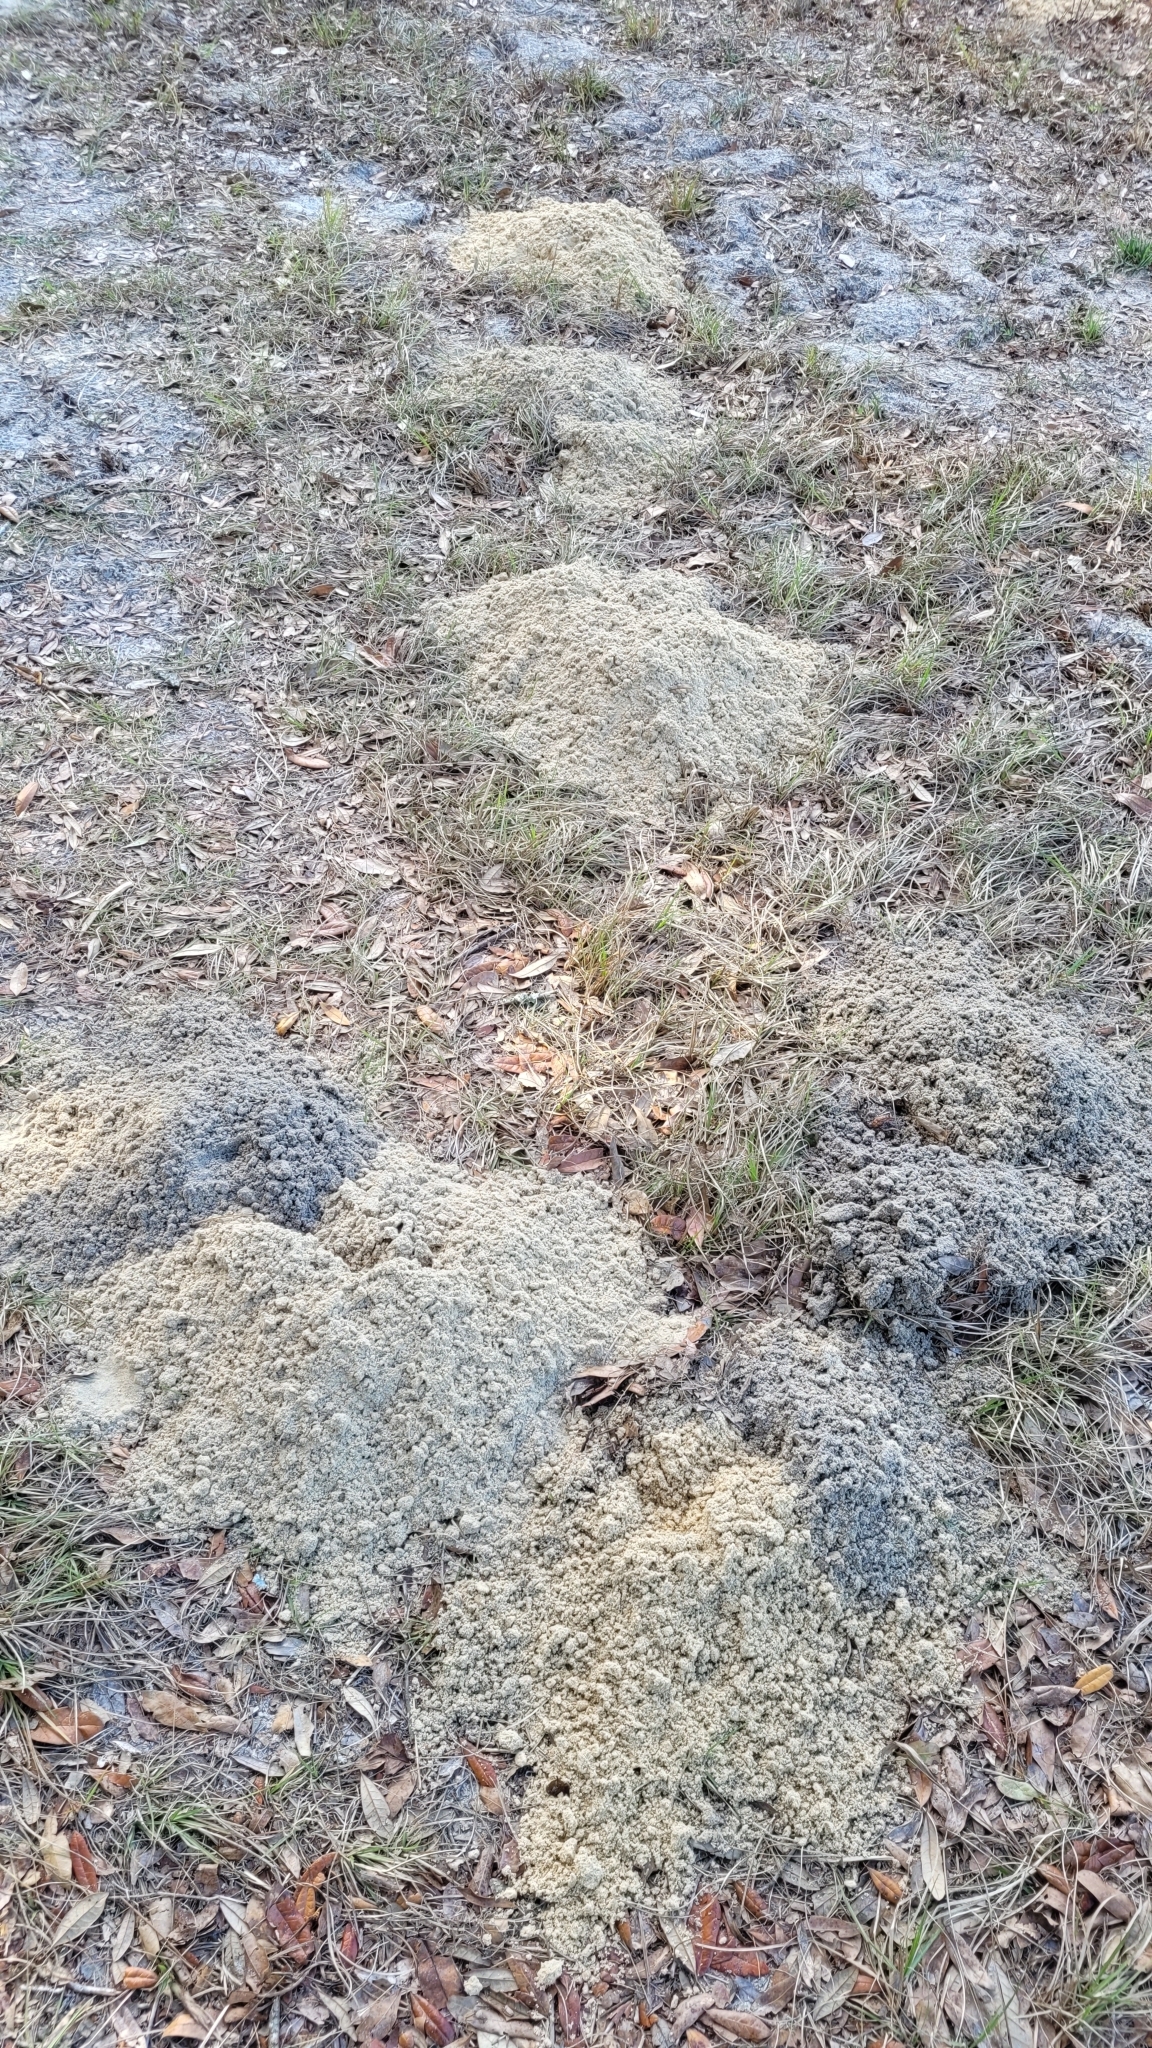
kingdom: Animalia
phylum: Chordata
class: Mammalia
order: Rodentia
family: Geomyidae
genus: Geomys
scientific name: Geomys pinetis
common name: Southeastern pocket gopher
